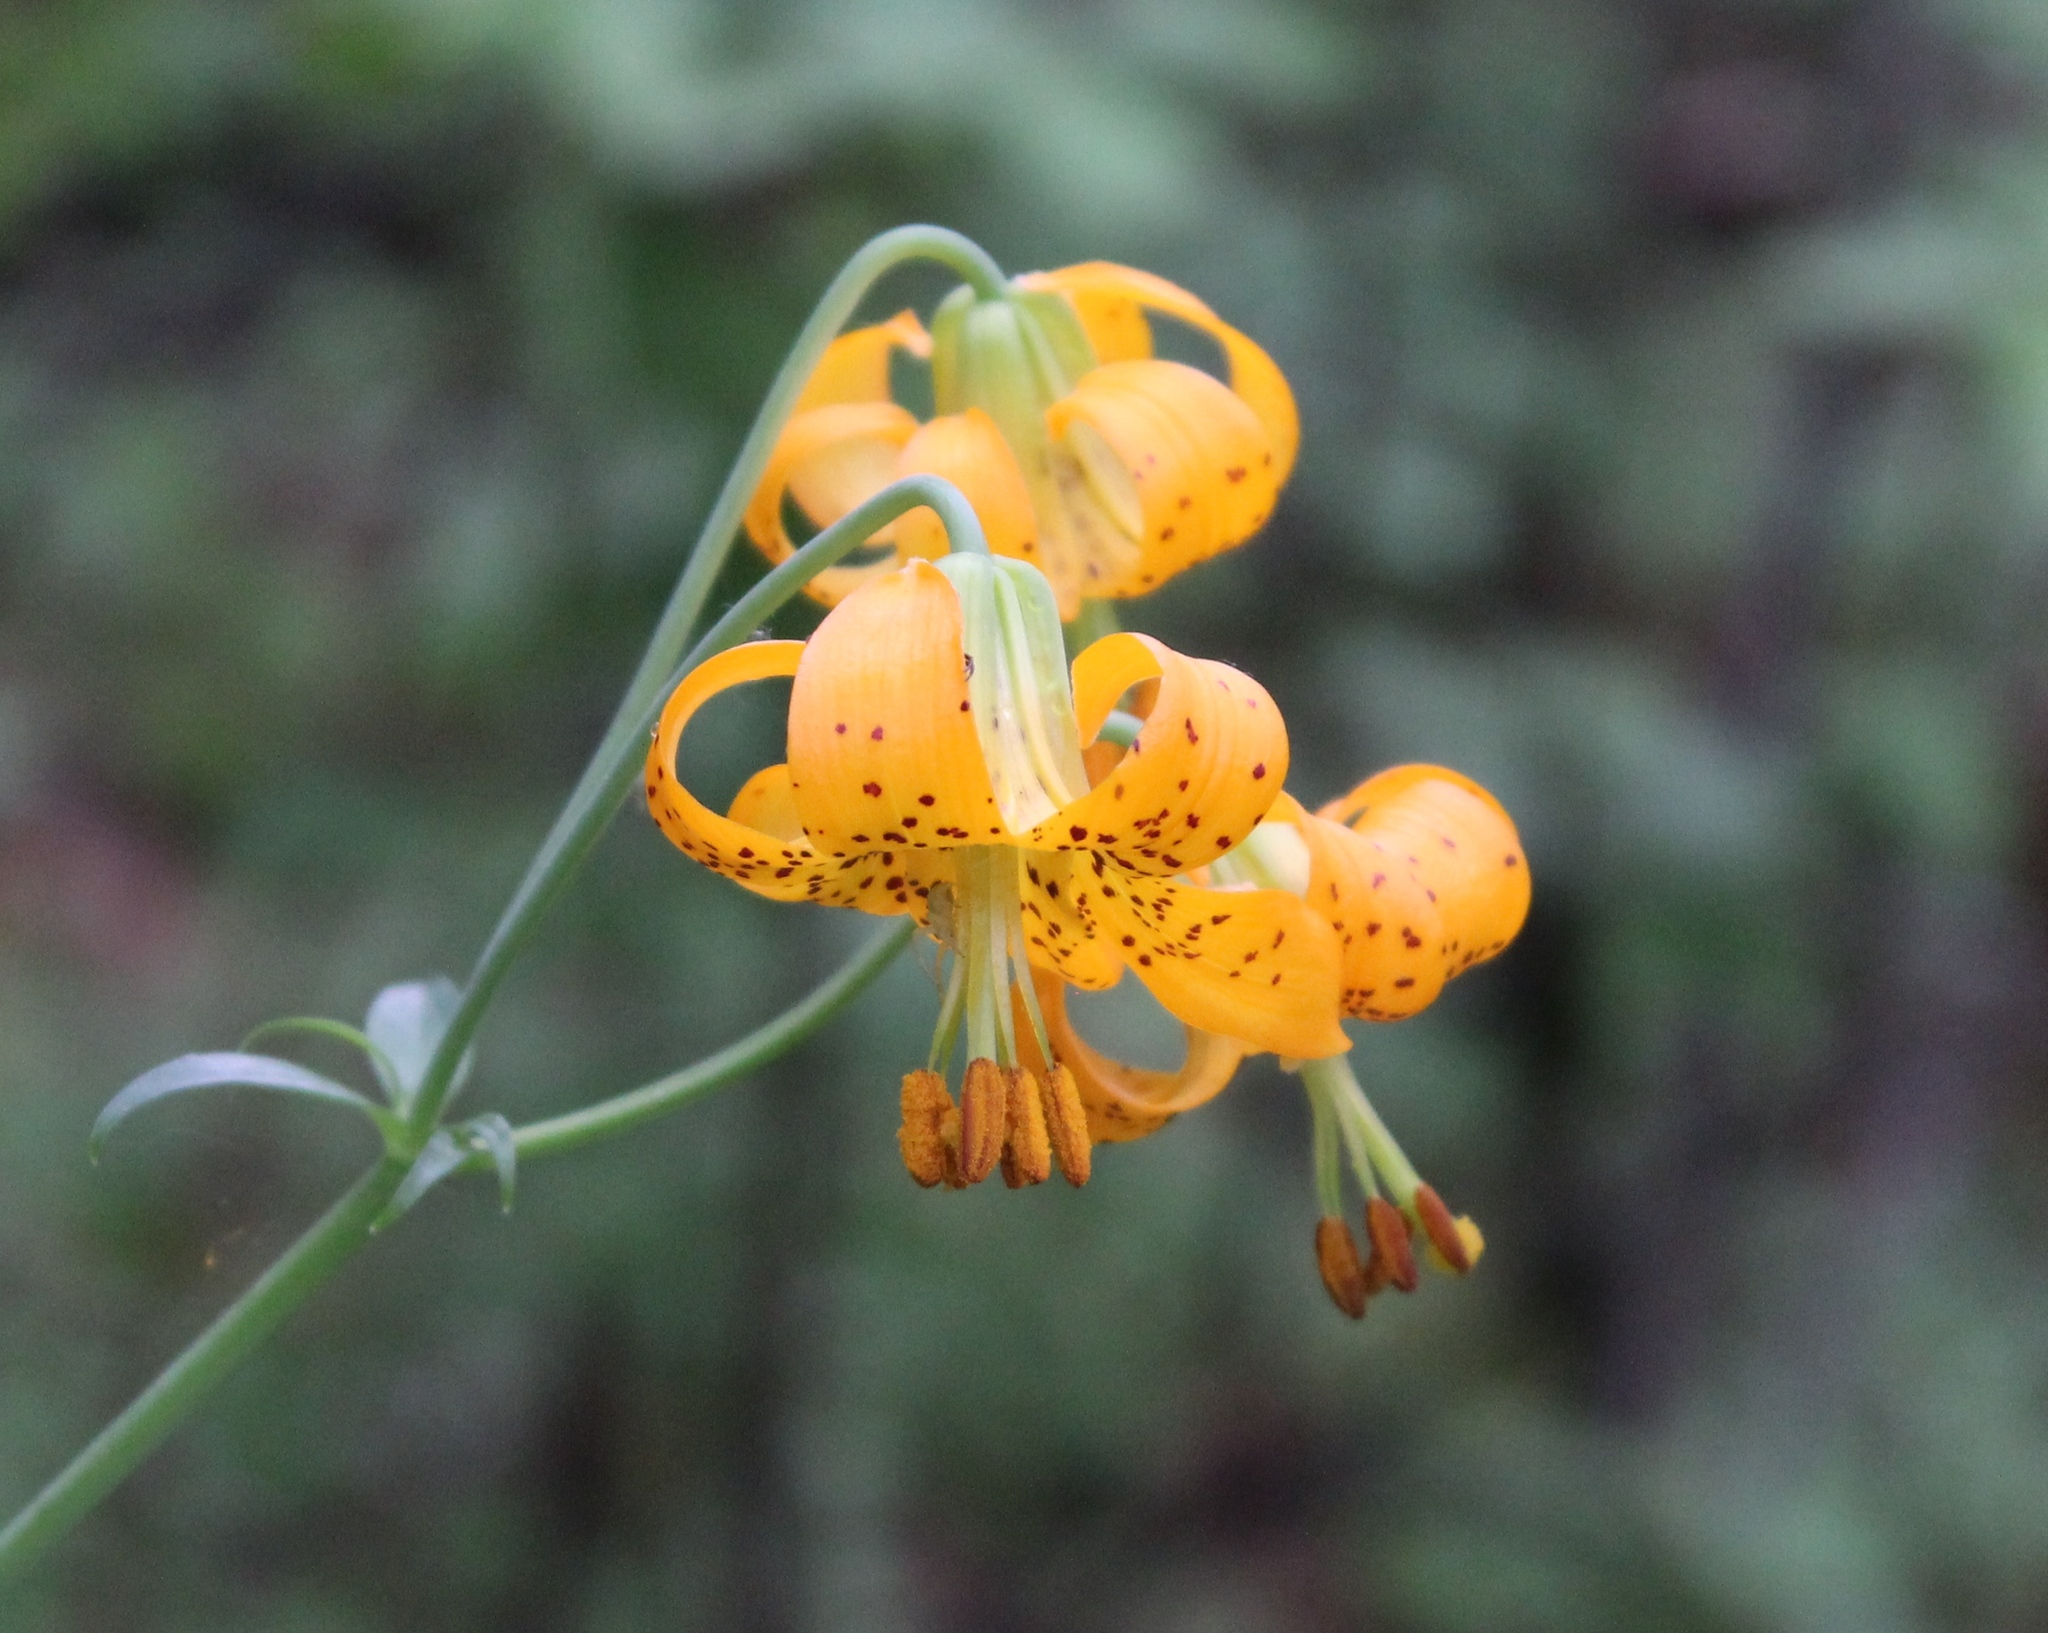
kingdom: Plantae
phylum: Tracheophyta
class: Liliopsida
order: Liliales
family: Liliaceae
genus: Lilium
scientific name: Lilium columbianum
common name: Columbia lily
